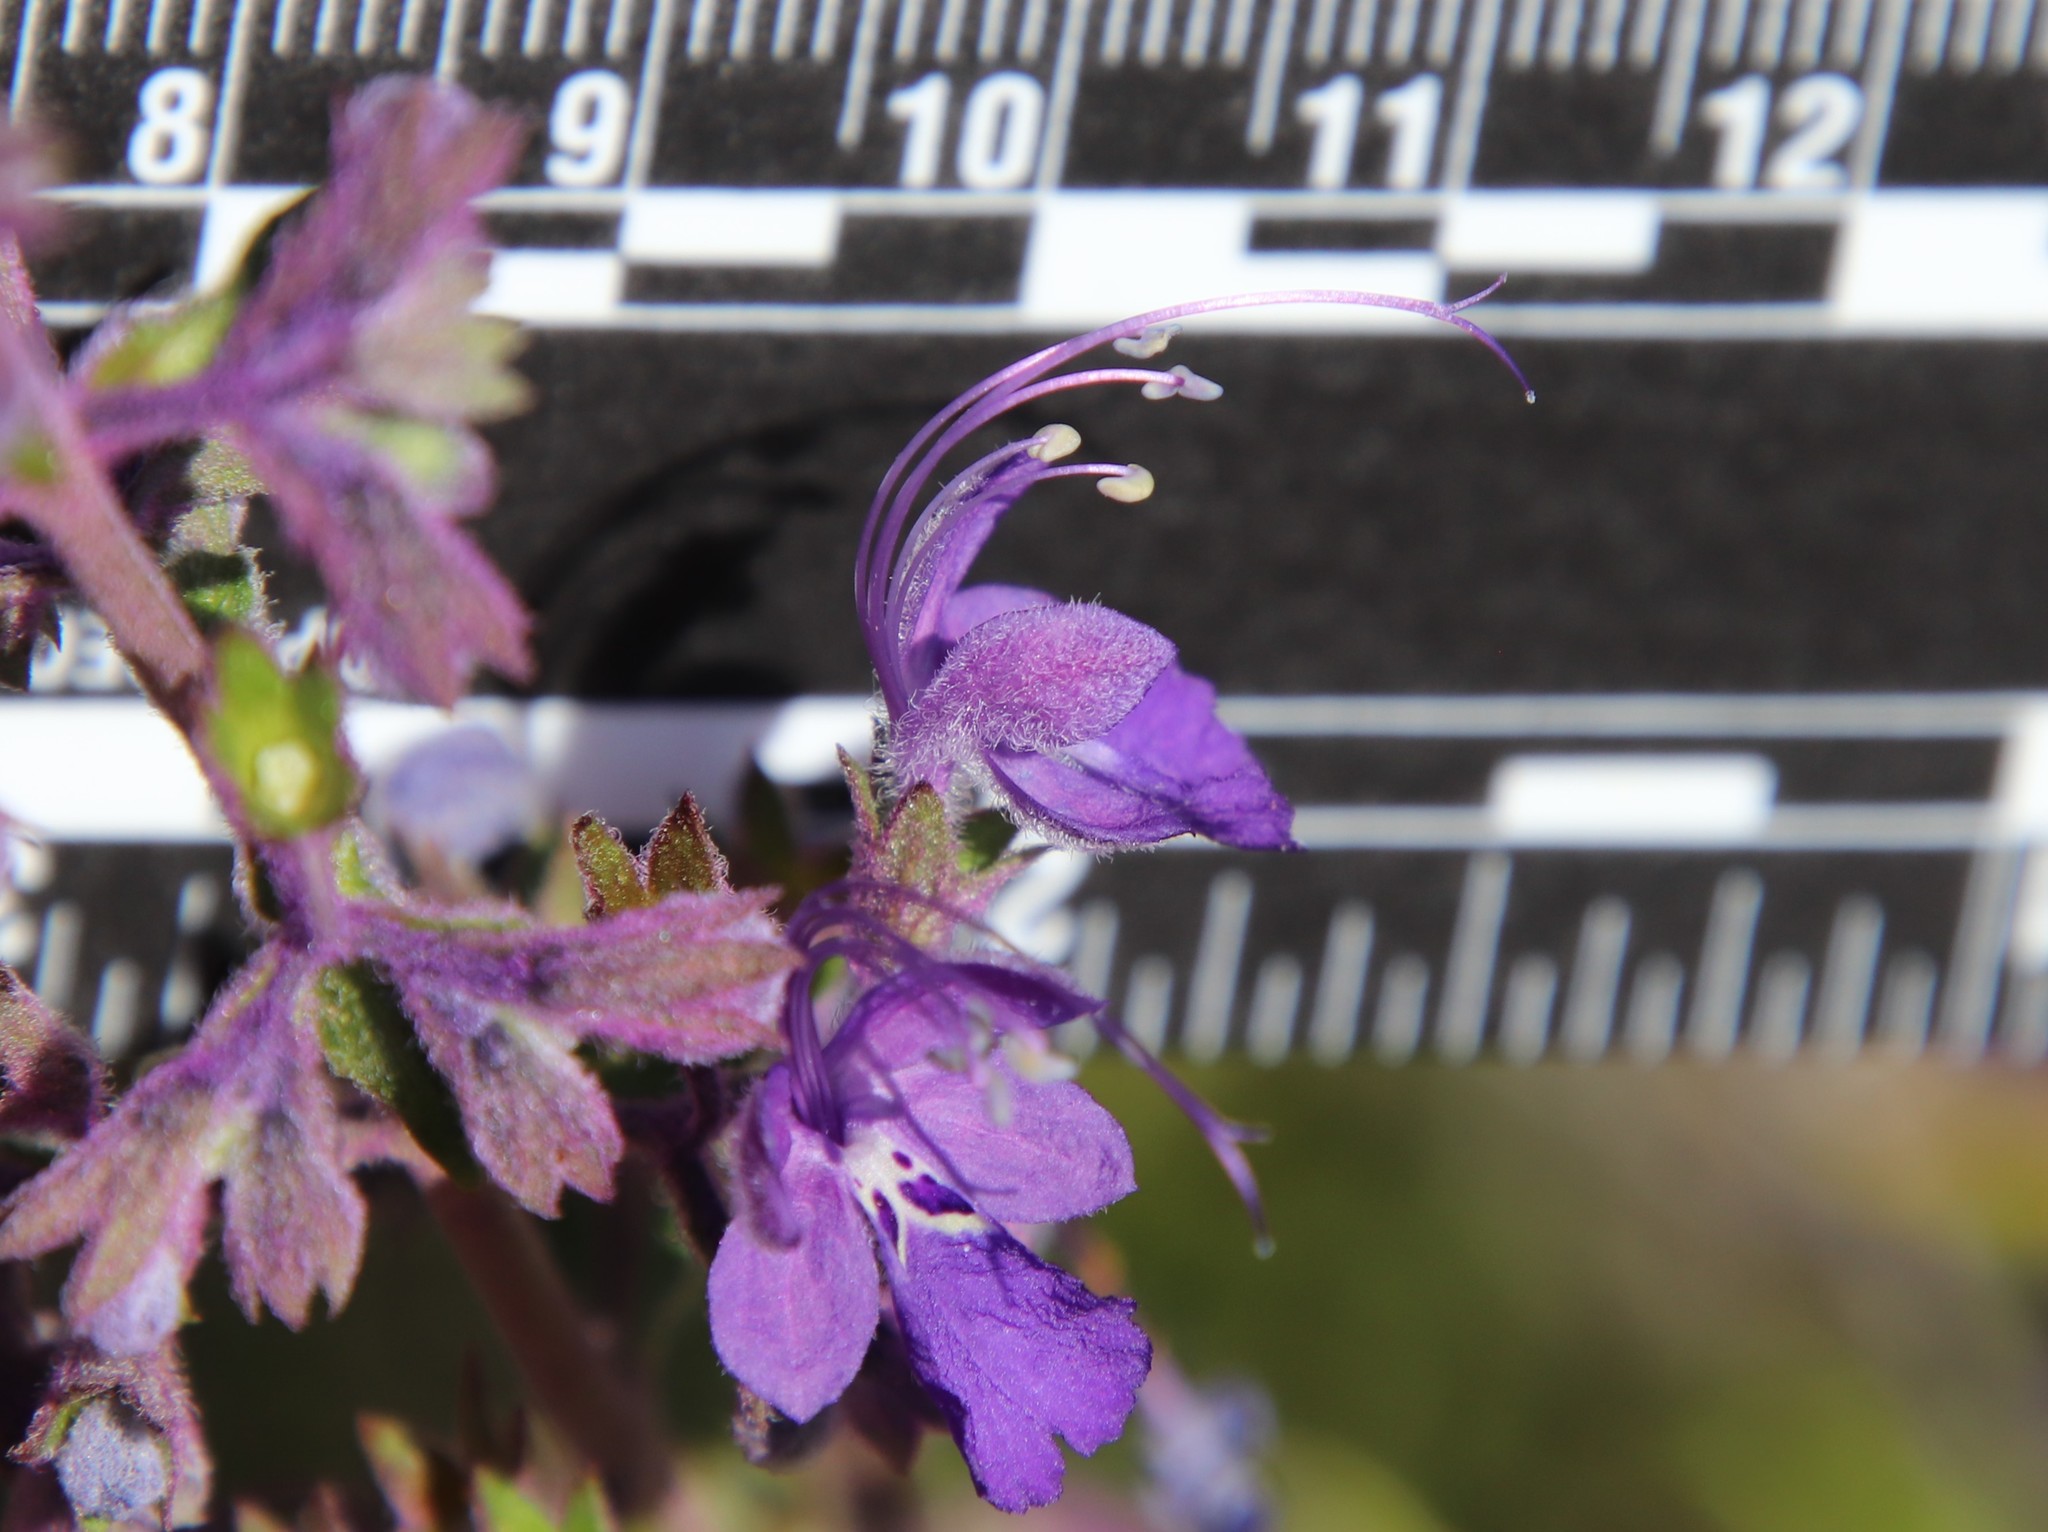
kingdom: Plantae
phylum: Tracheophyta
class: Magnoliopsida
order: Lamiales
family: Lamiaceae
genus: Trichostema
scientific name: Trichostema parishii
